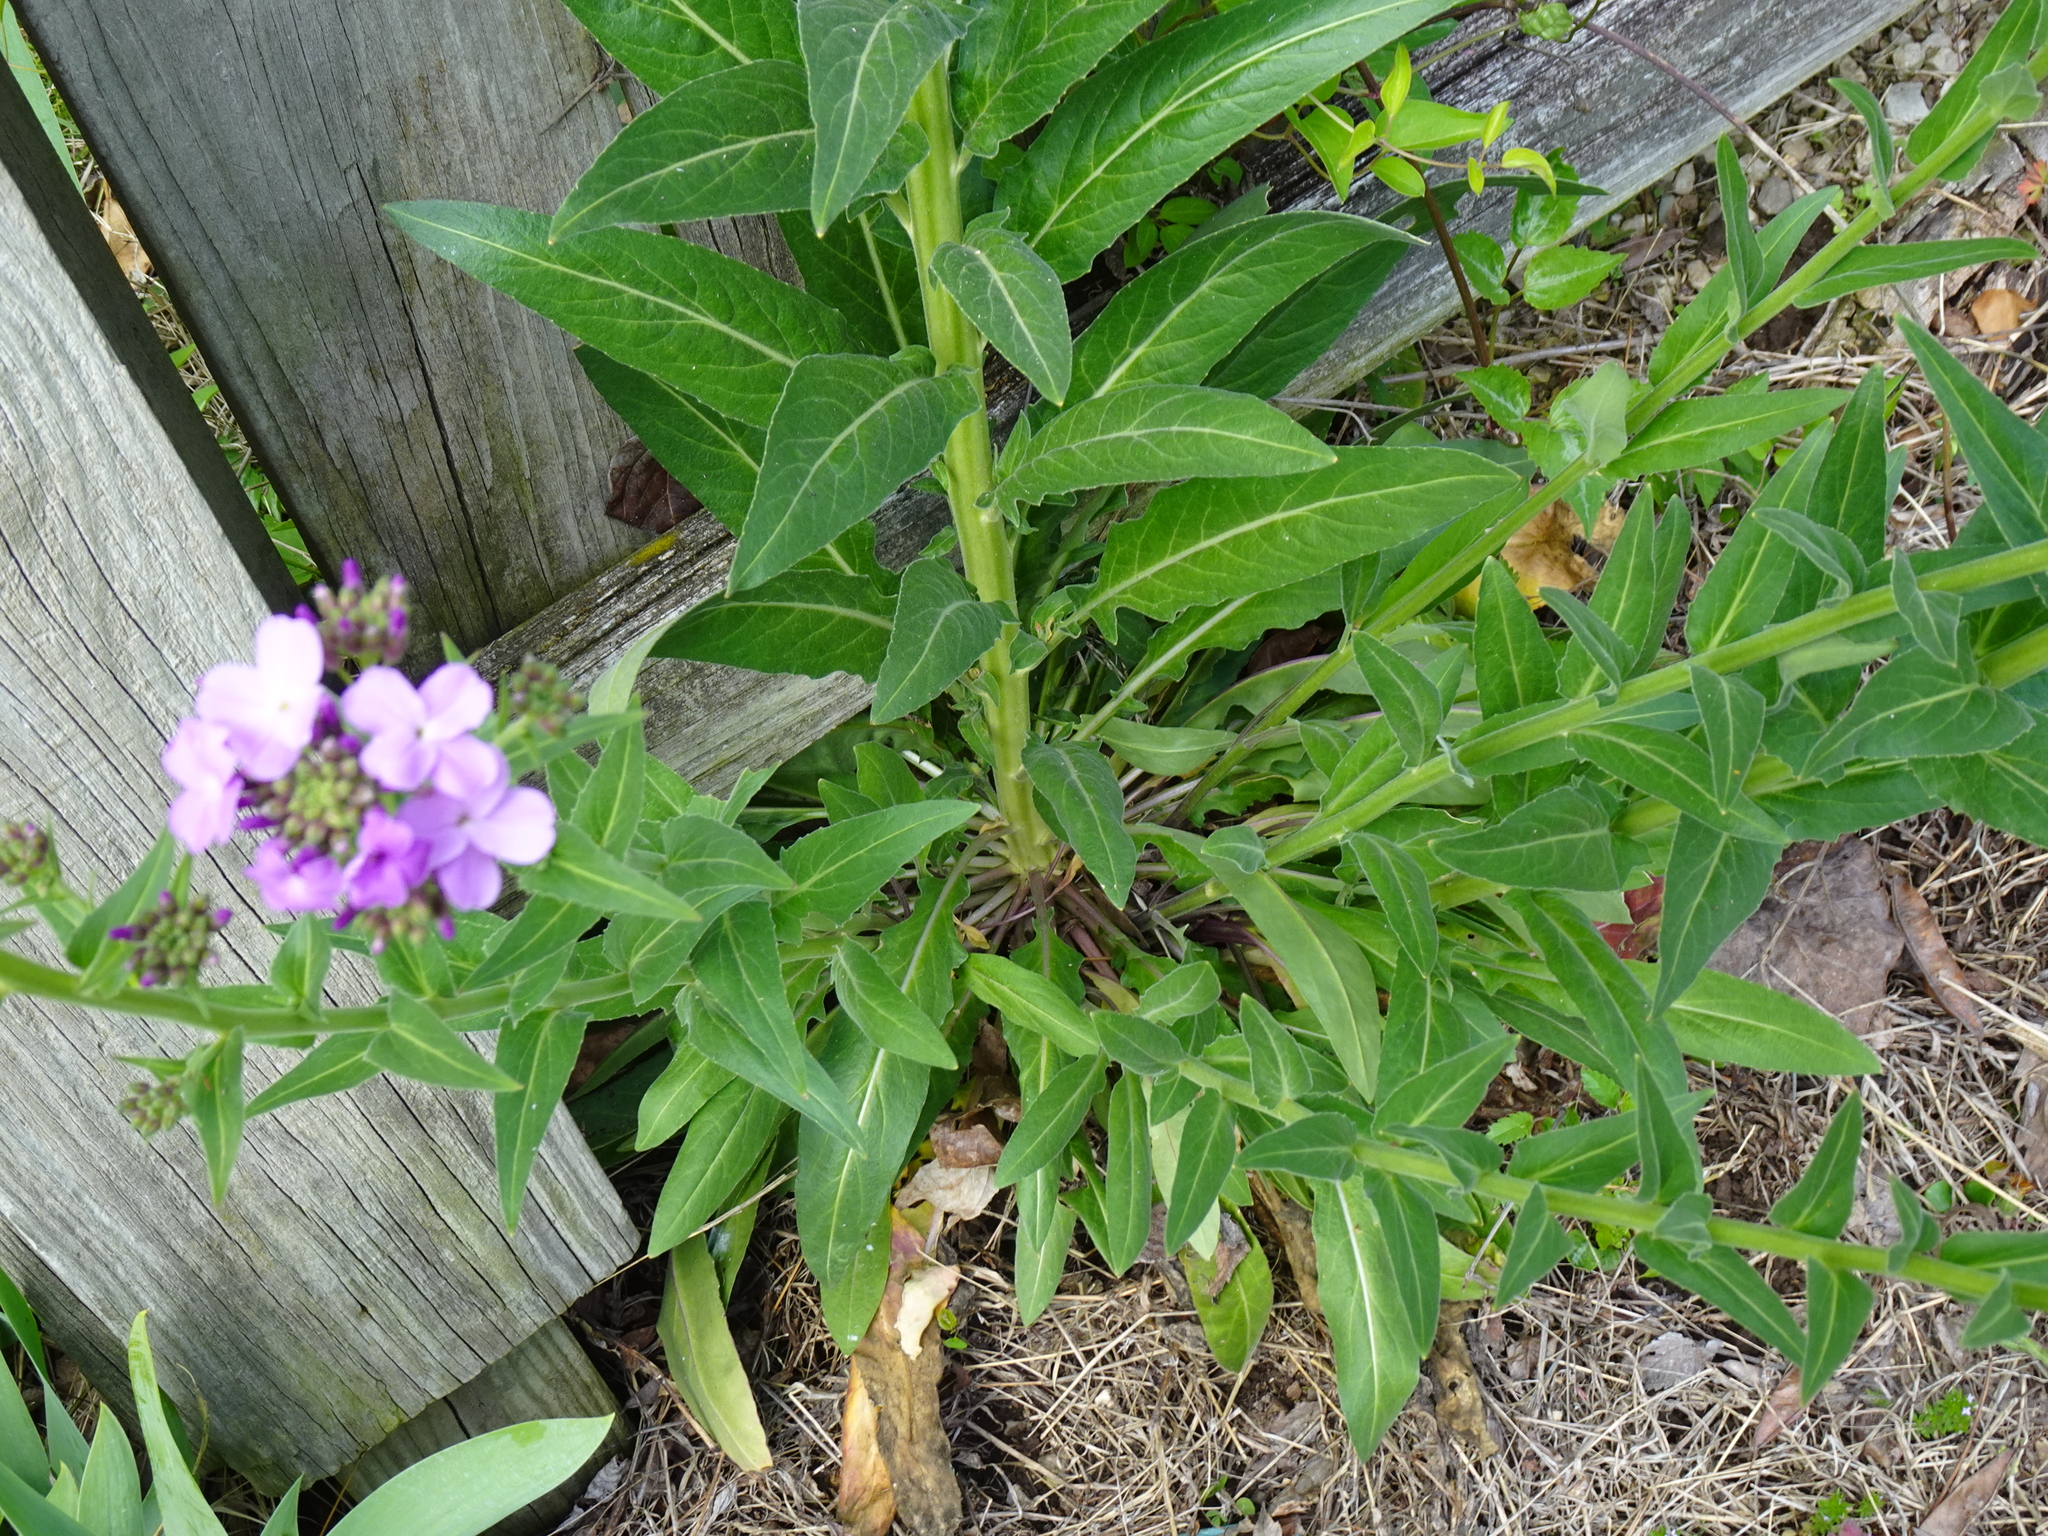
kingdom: Plantae
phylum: Tracheophyta
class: Magnoliopsida
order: Brassicales
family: Brassicaceae
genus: Hesperis
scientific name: Hesperis matronalis
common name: Dame's-violet
